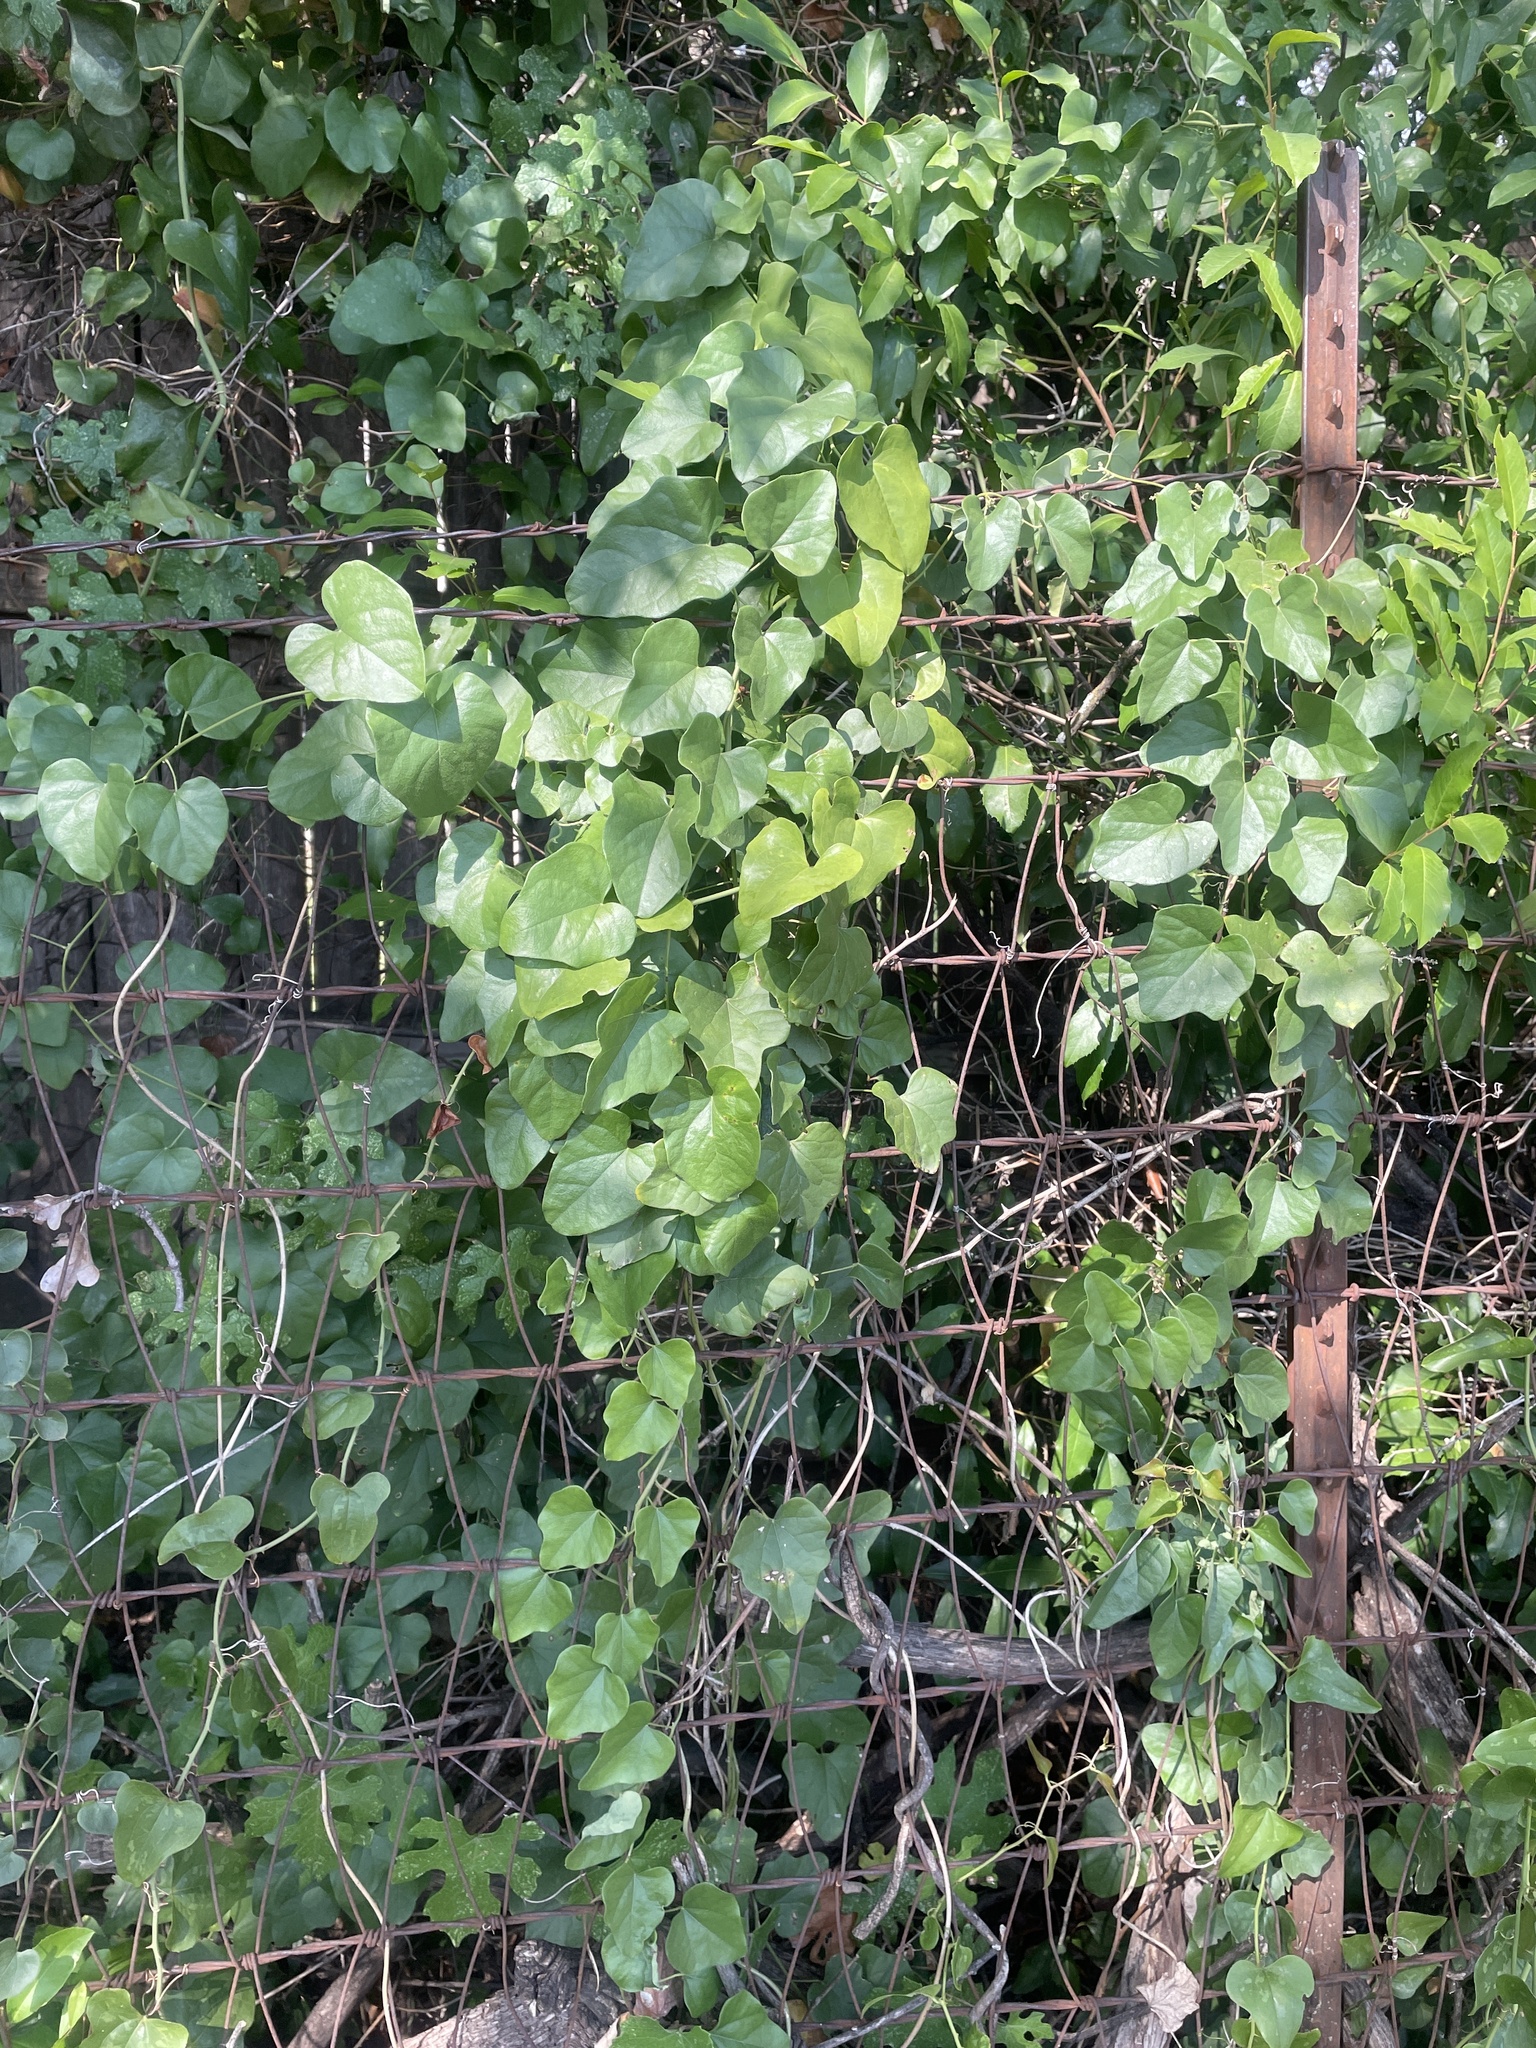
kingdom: Plantae
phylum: Tracheophyta
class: Magnoliopsida
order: Ranunculales
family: Menispermaceae
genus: Cocculus
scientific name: Cocculus carolinus
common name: Carolina moonseed
